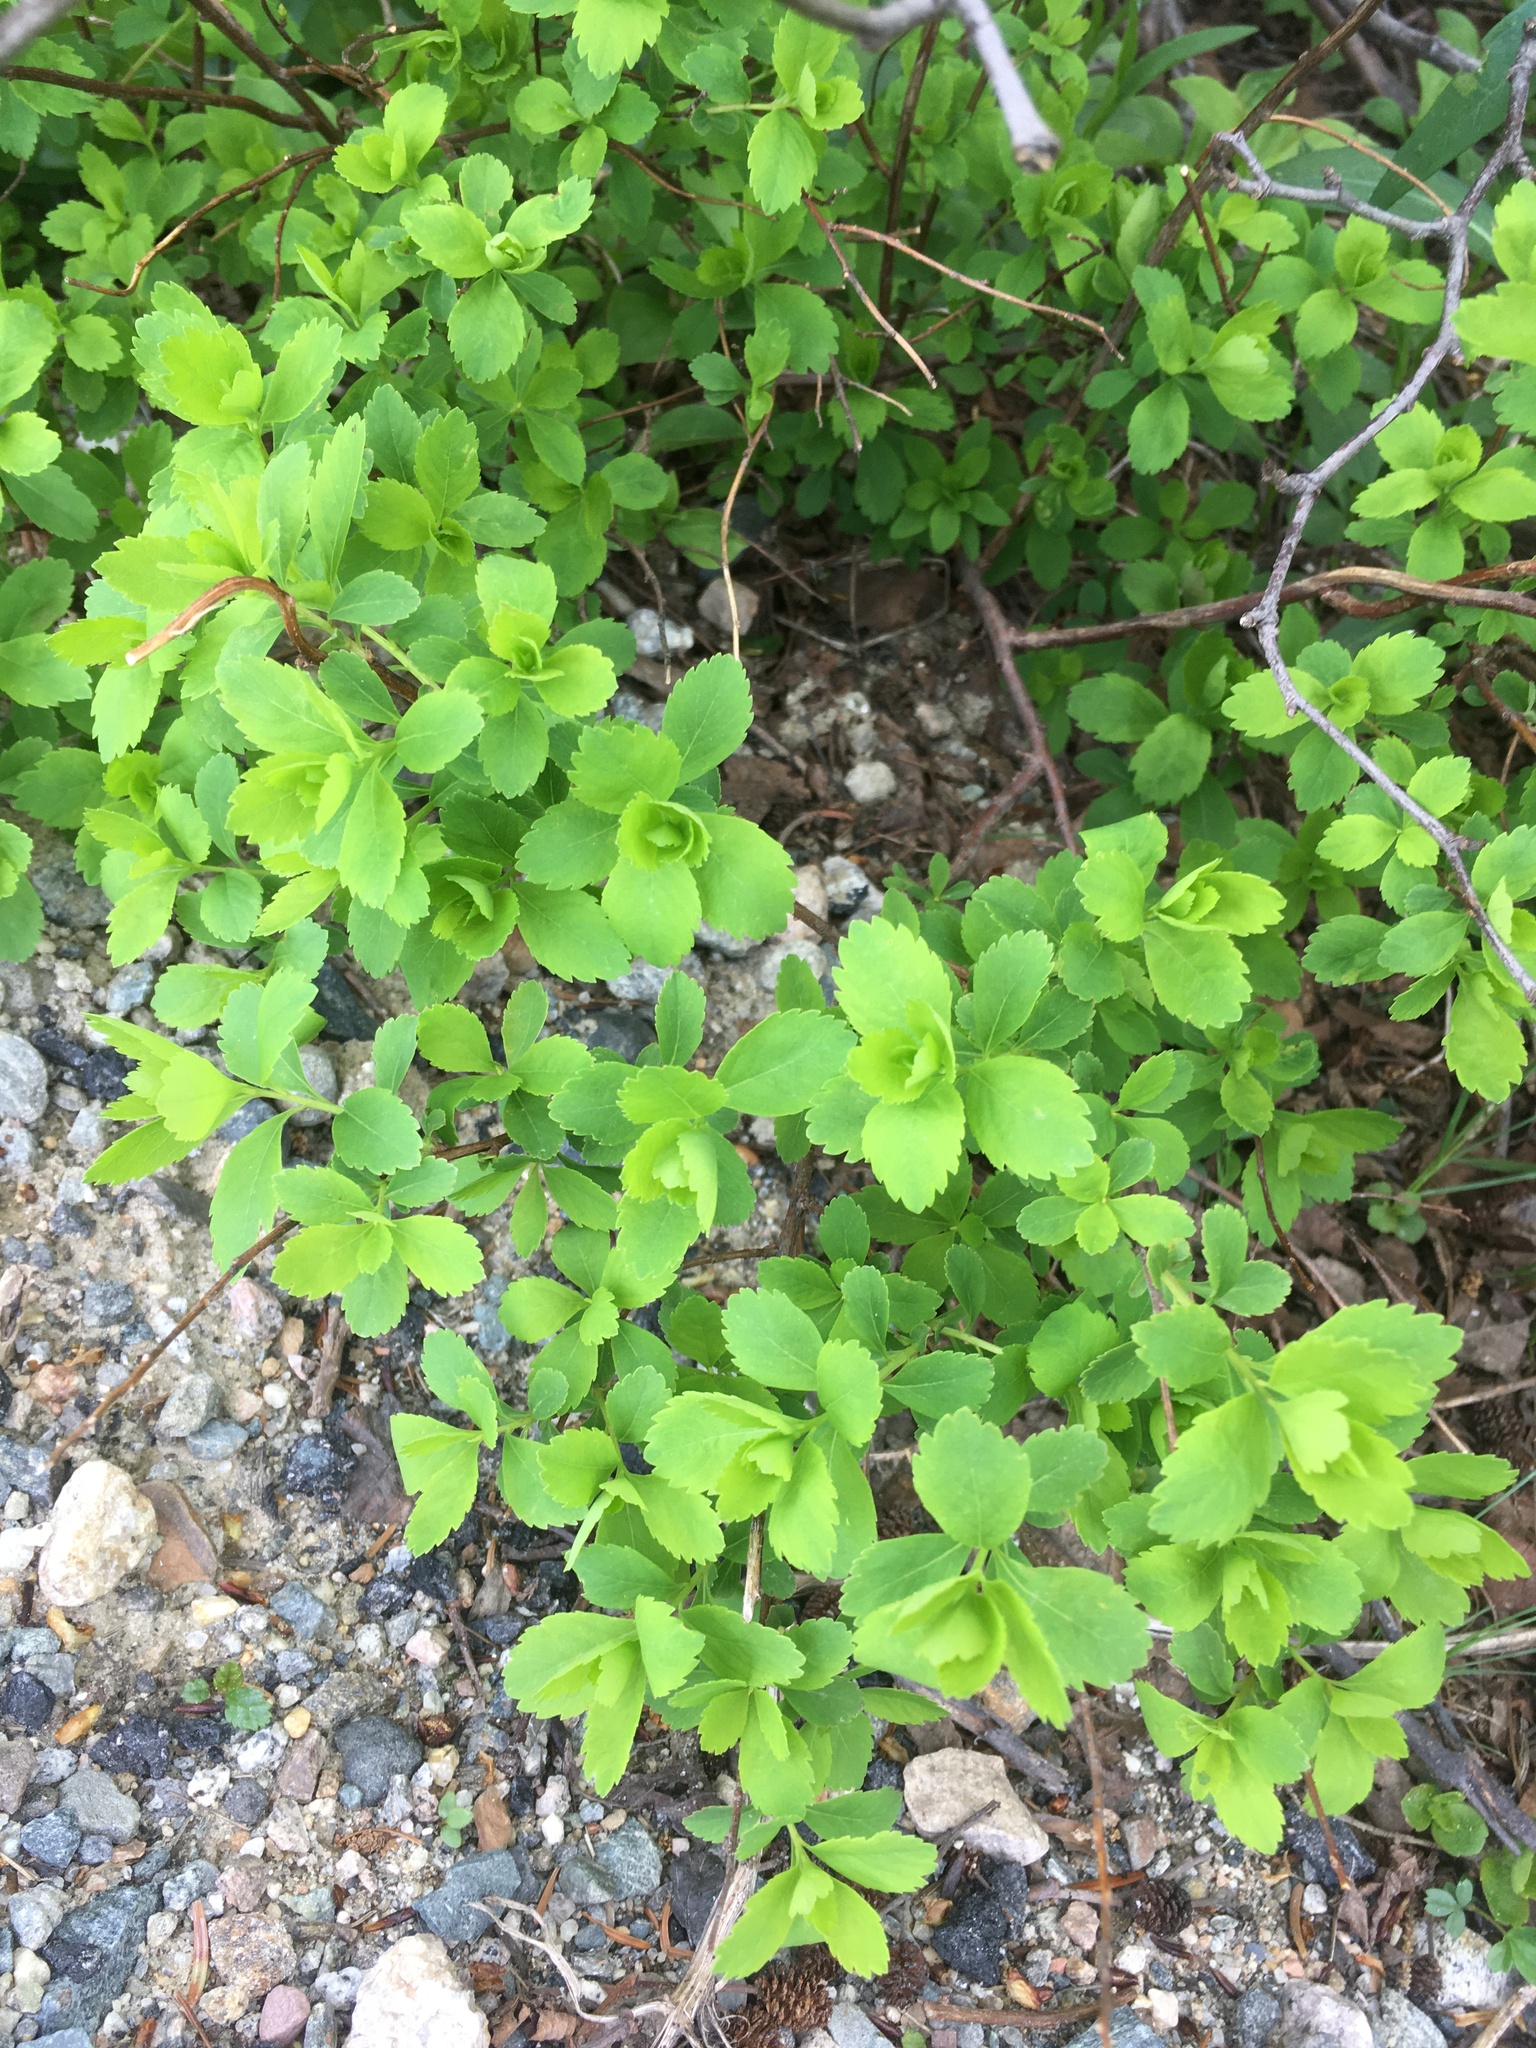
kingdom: Plantae
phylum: Tracheophyta
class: Magnoliopsida
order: Rosales
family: Rosaceae
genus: Spiraea
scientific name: Spiraea alba
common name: Pale bridewort
